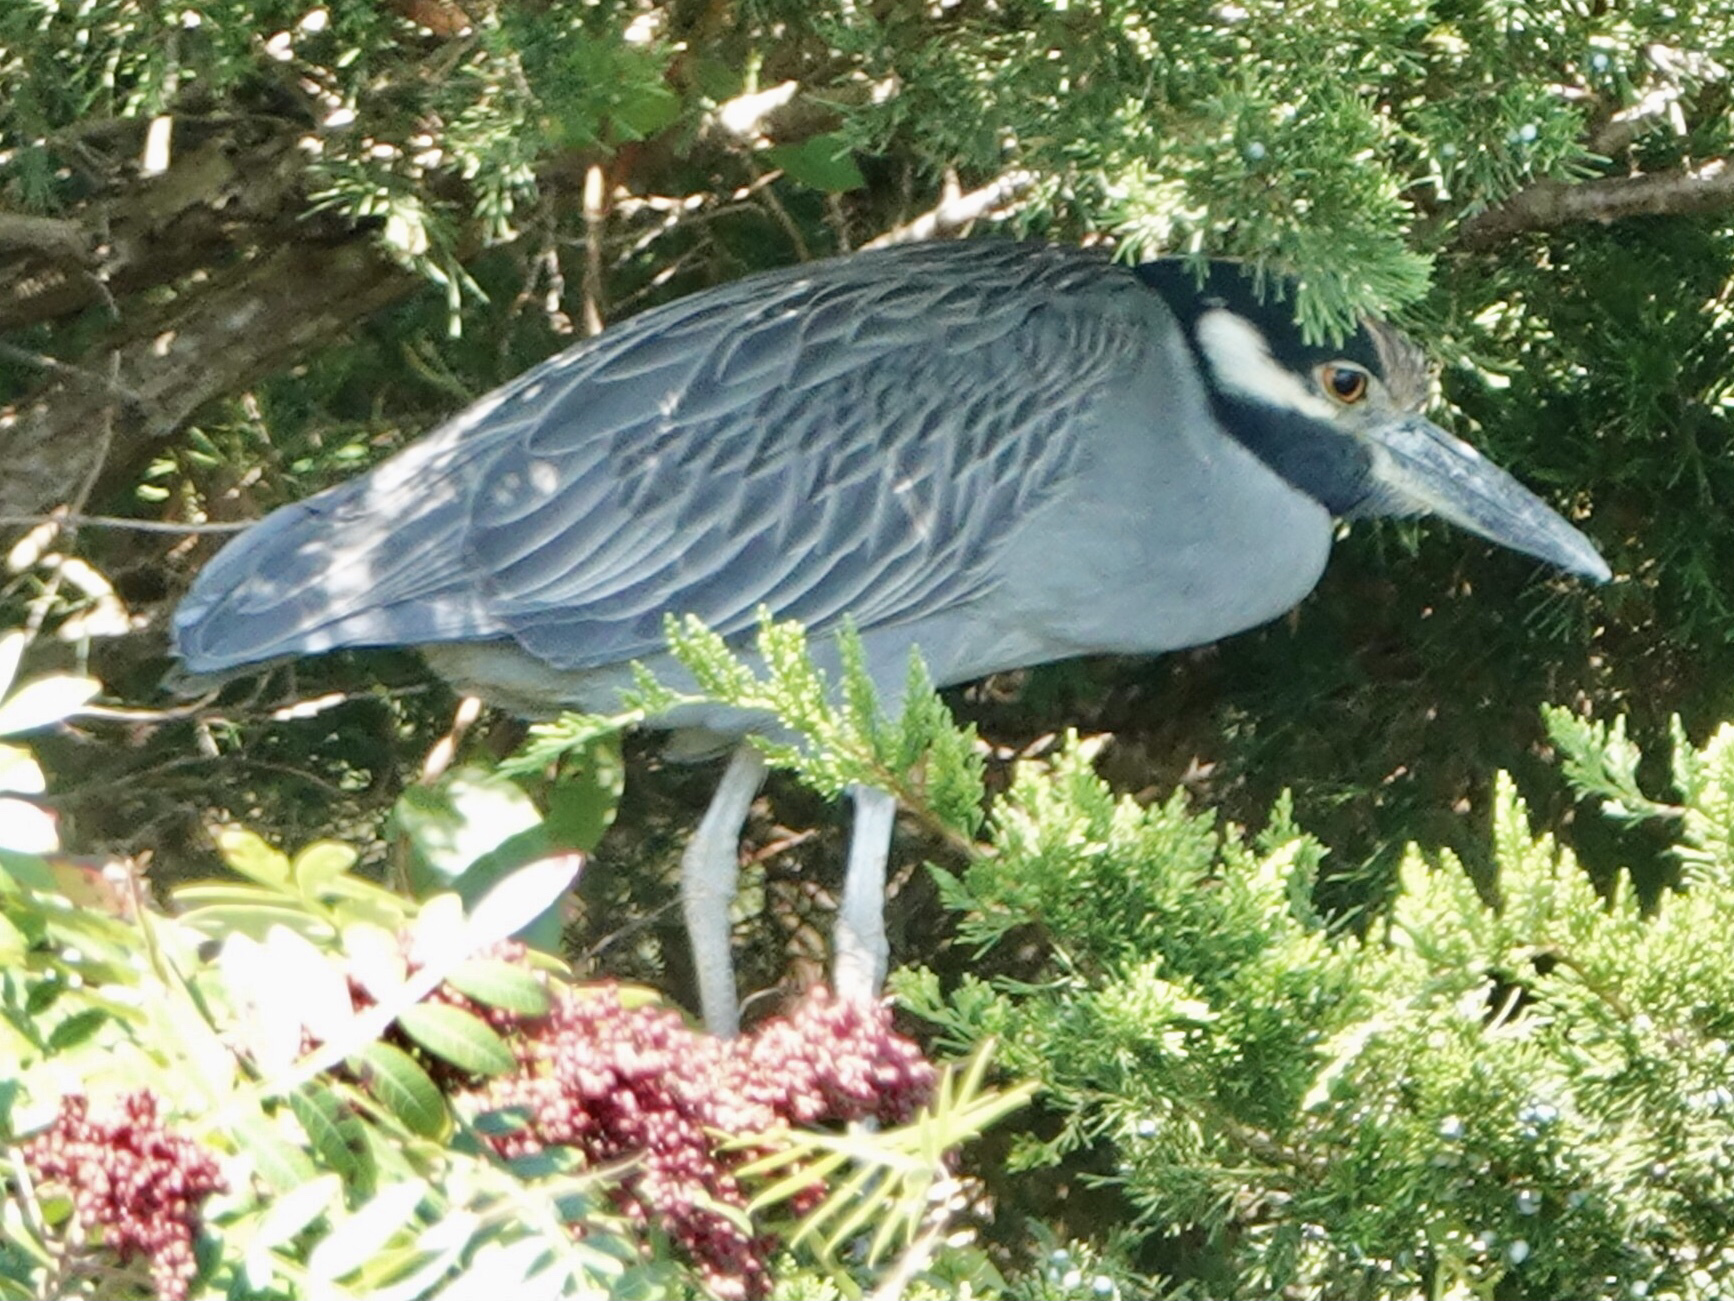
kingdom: Animalia
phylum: Chordata
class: Aves
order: Pelecaniformes
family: Ardeidae
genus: Nyctanassa
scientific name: Nyctanassa violacea
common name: Yellow-crowned night heron
